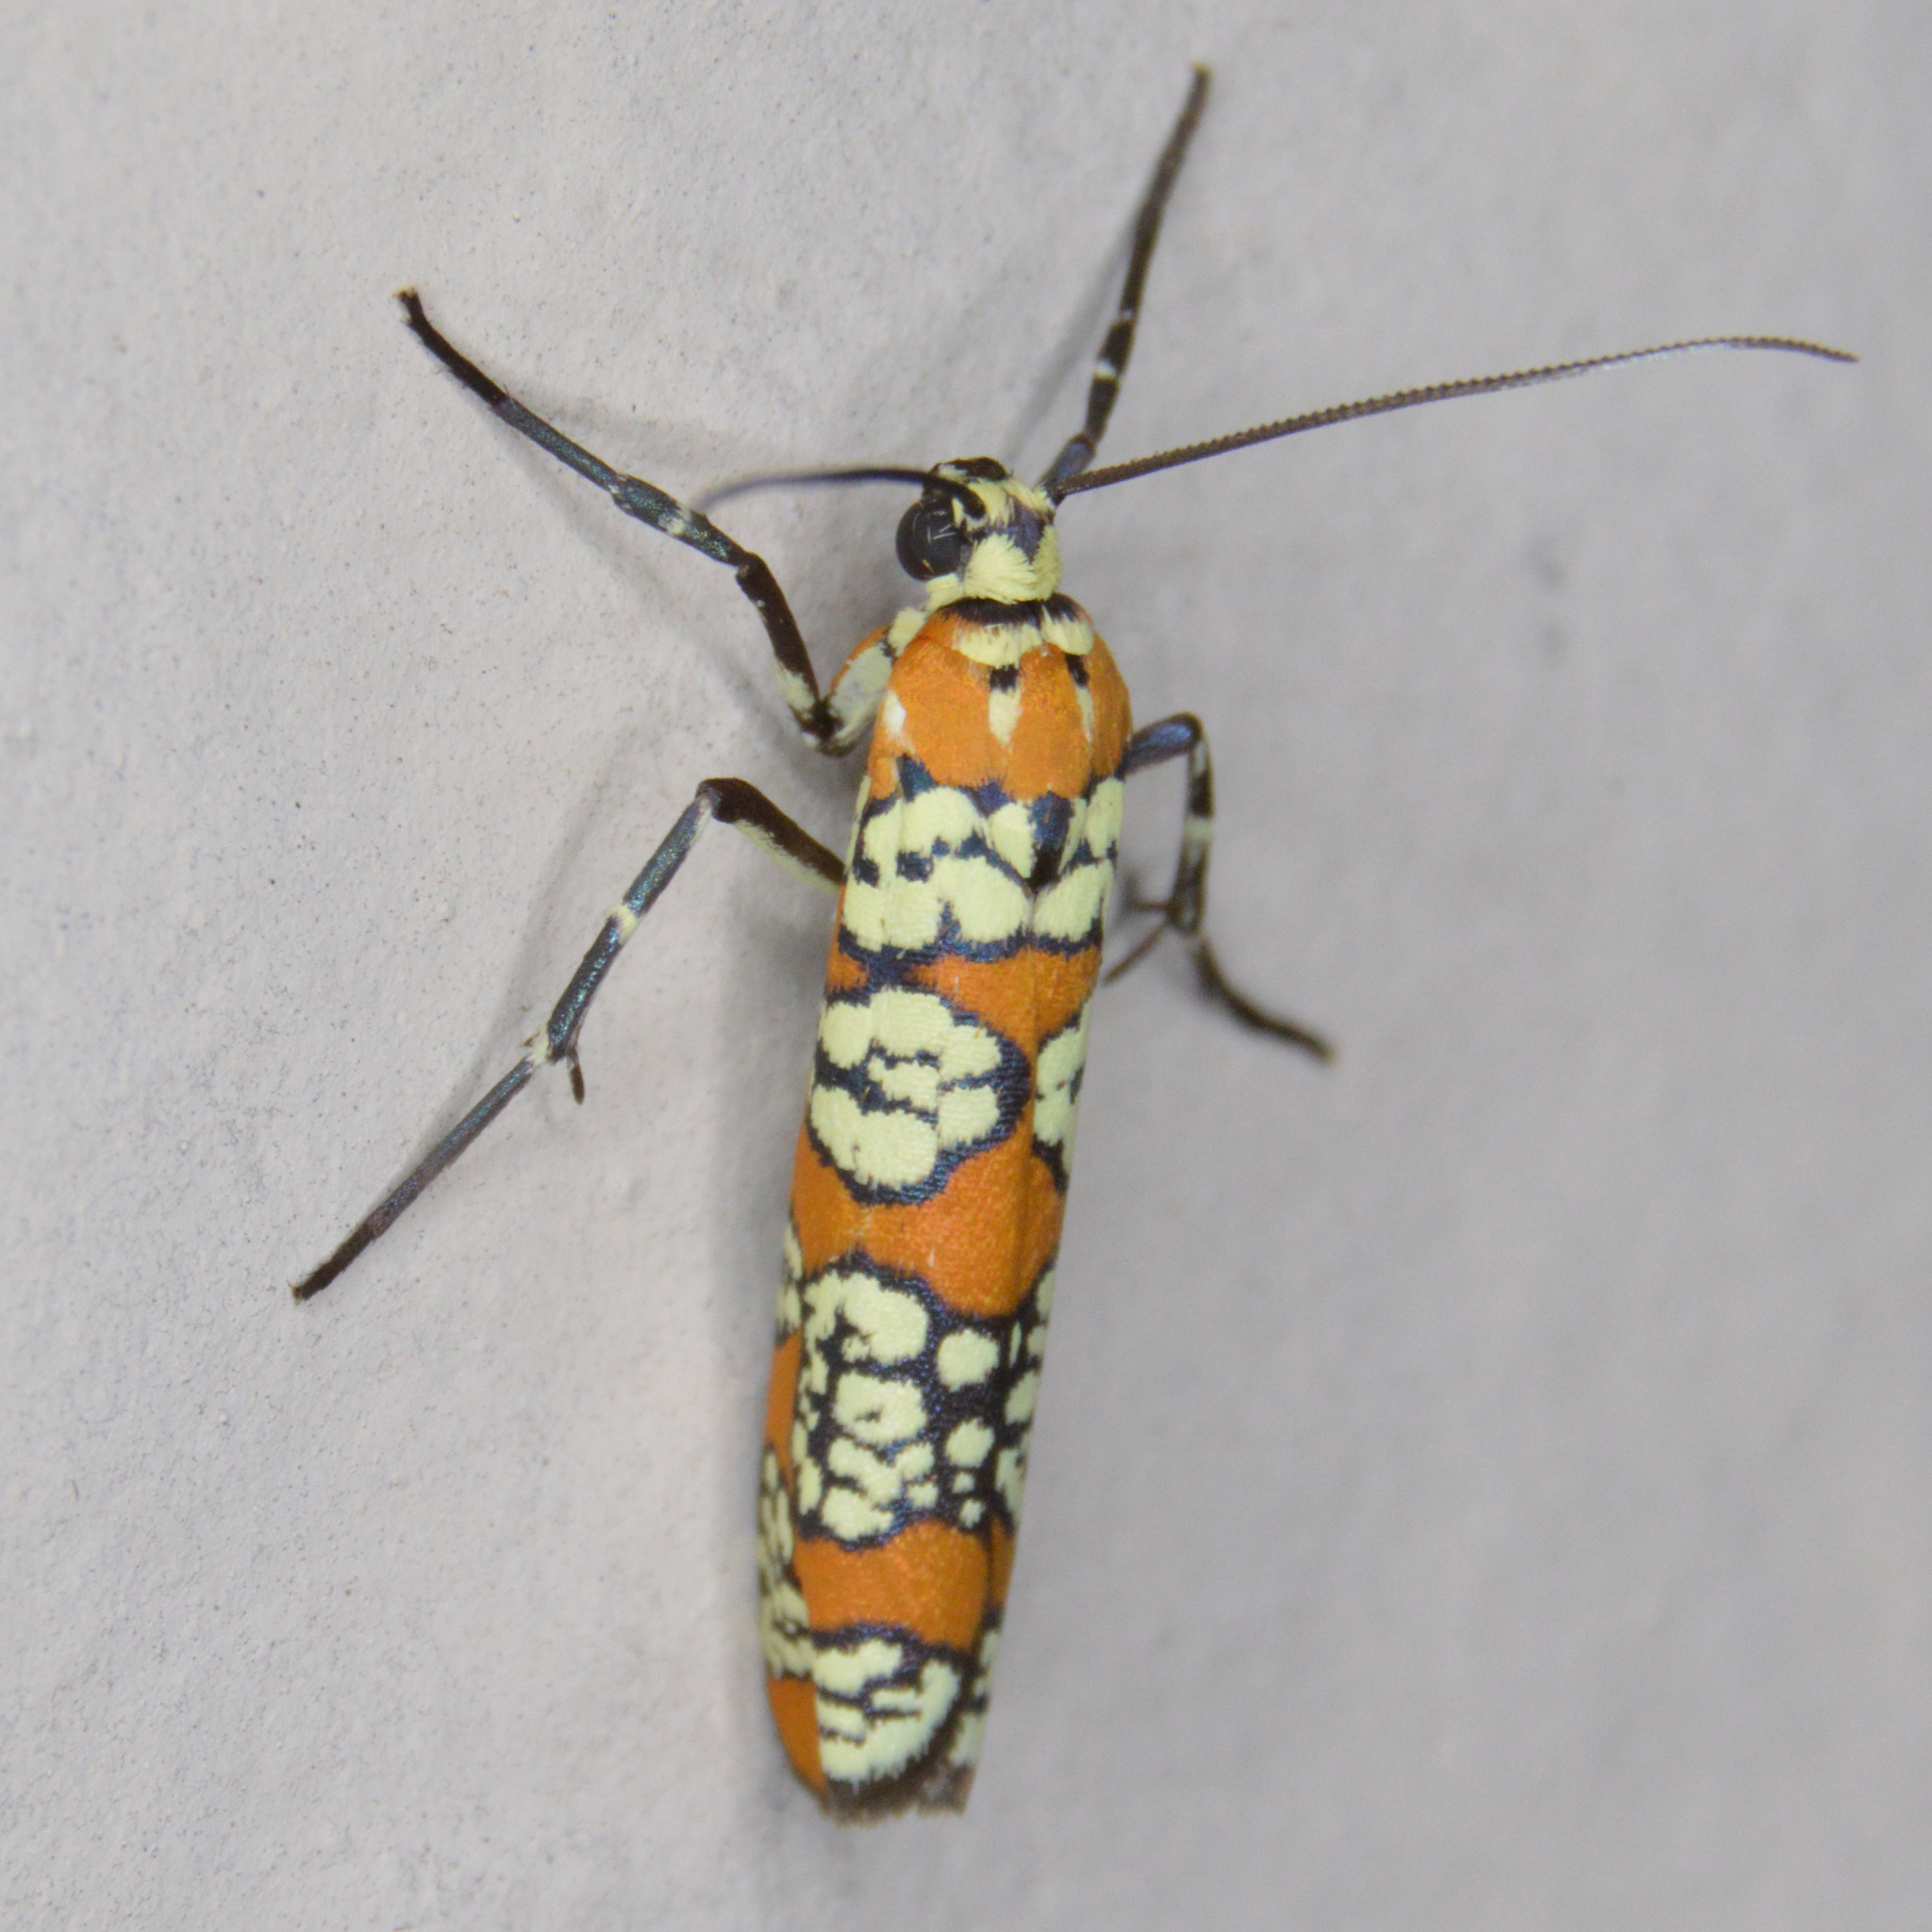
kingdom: Animalia
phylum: Arthropoda
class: Insecta
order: Lepidoptera
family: Attevidae
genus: Atteva
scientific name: Atteva punctella
